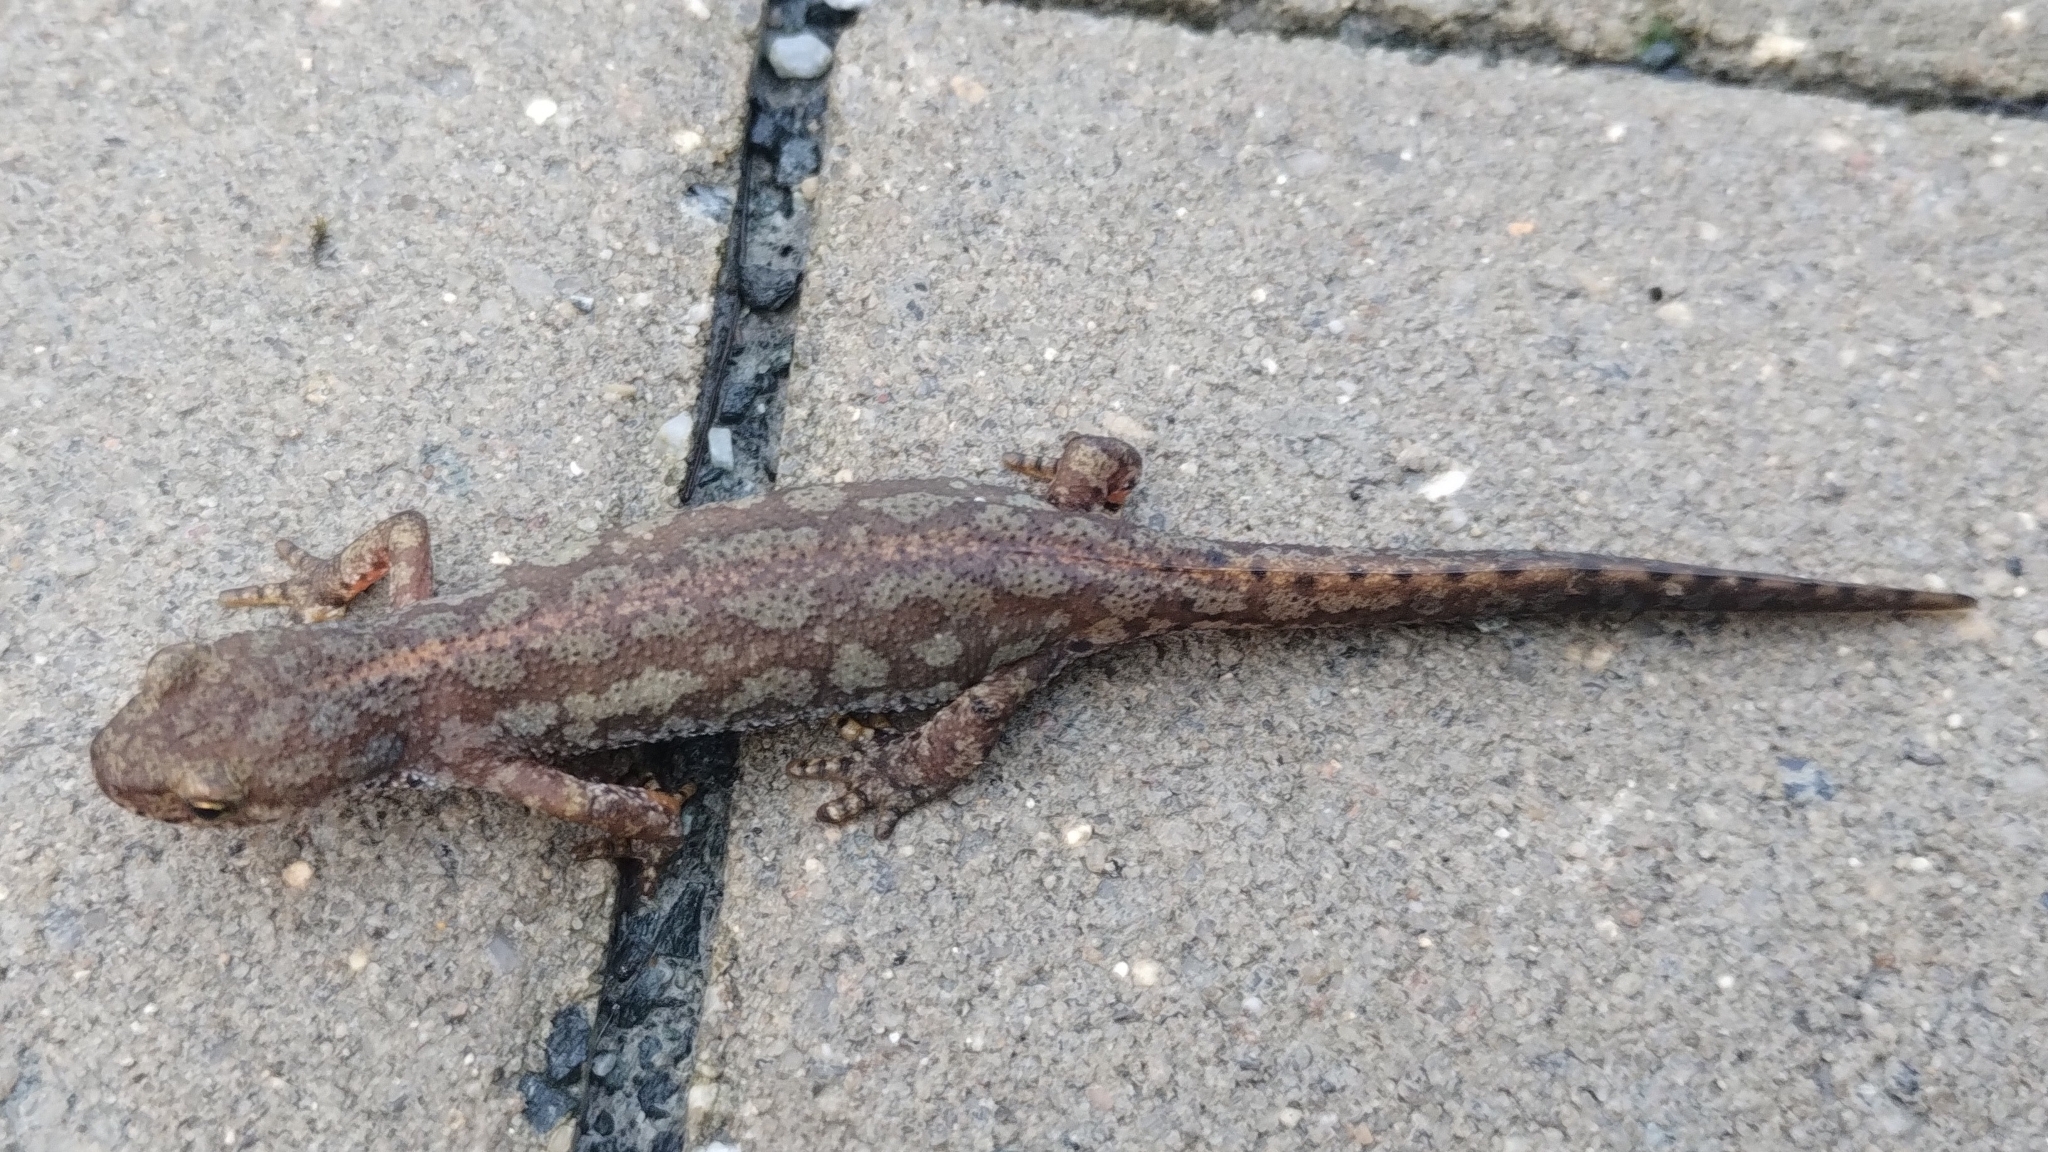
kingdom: Animalia
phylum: Chordata
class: Amphibia
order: Caudata
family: Salamandridae
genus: Ichthyosaura
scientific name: Ichthyosaura alpestris
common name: Alpine newt
